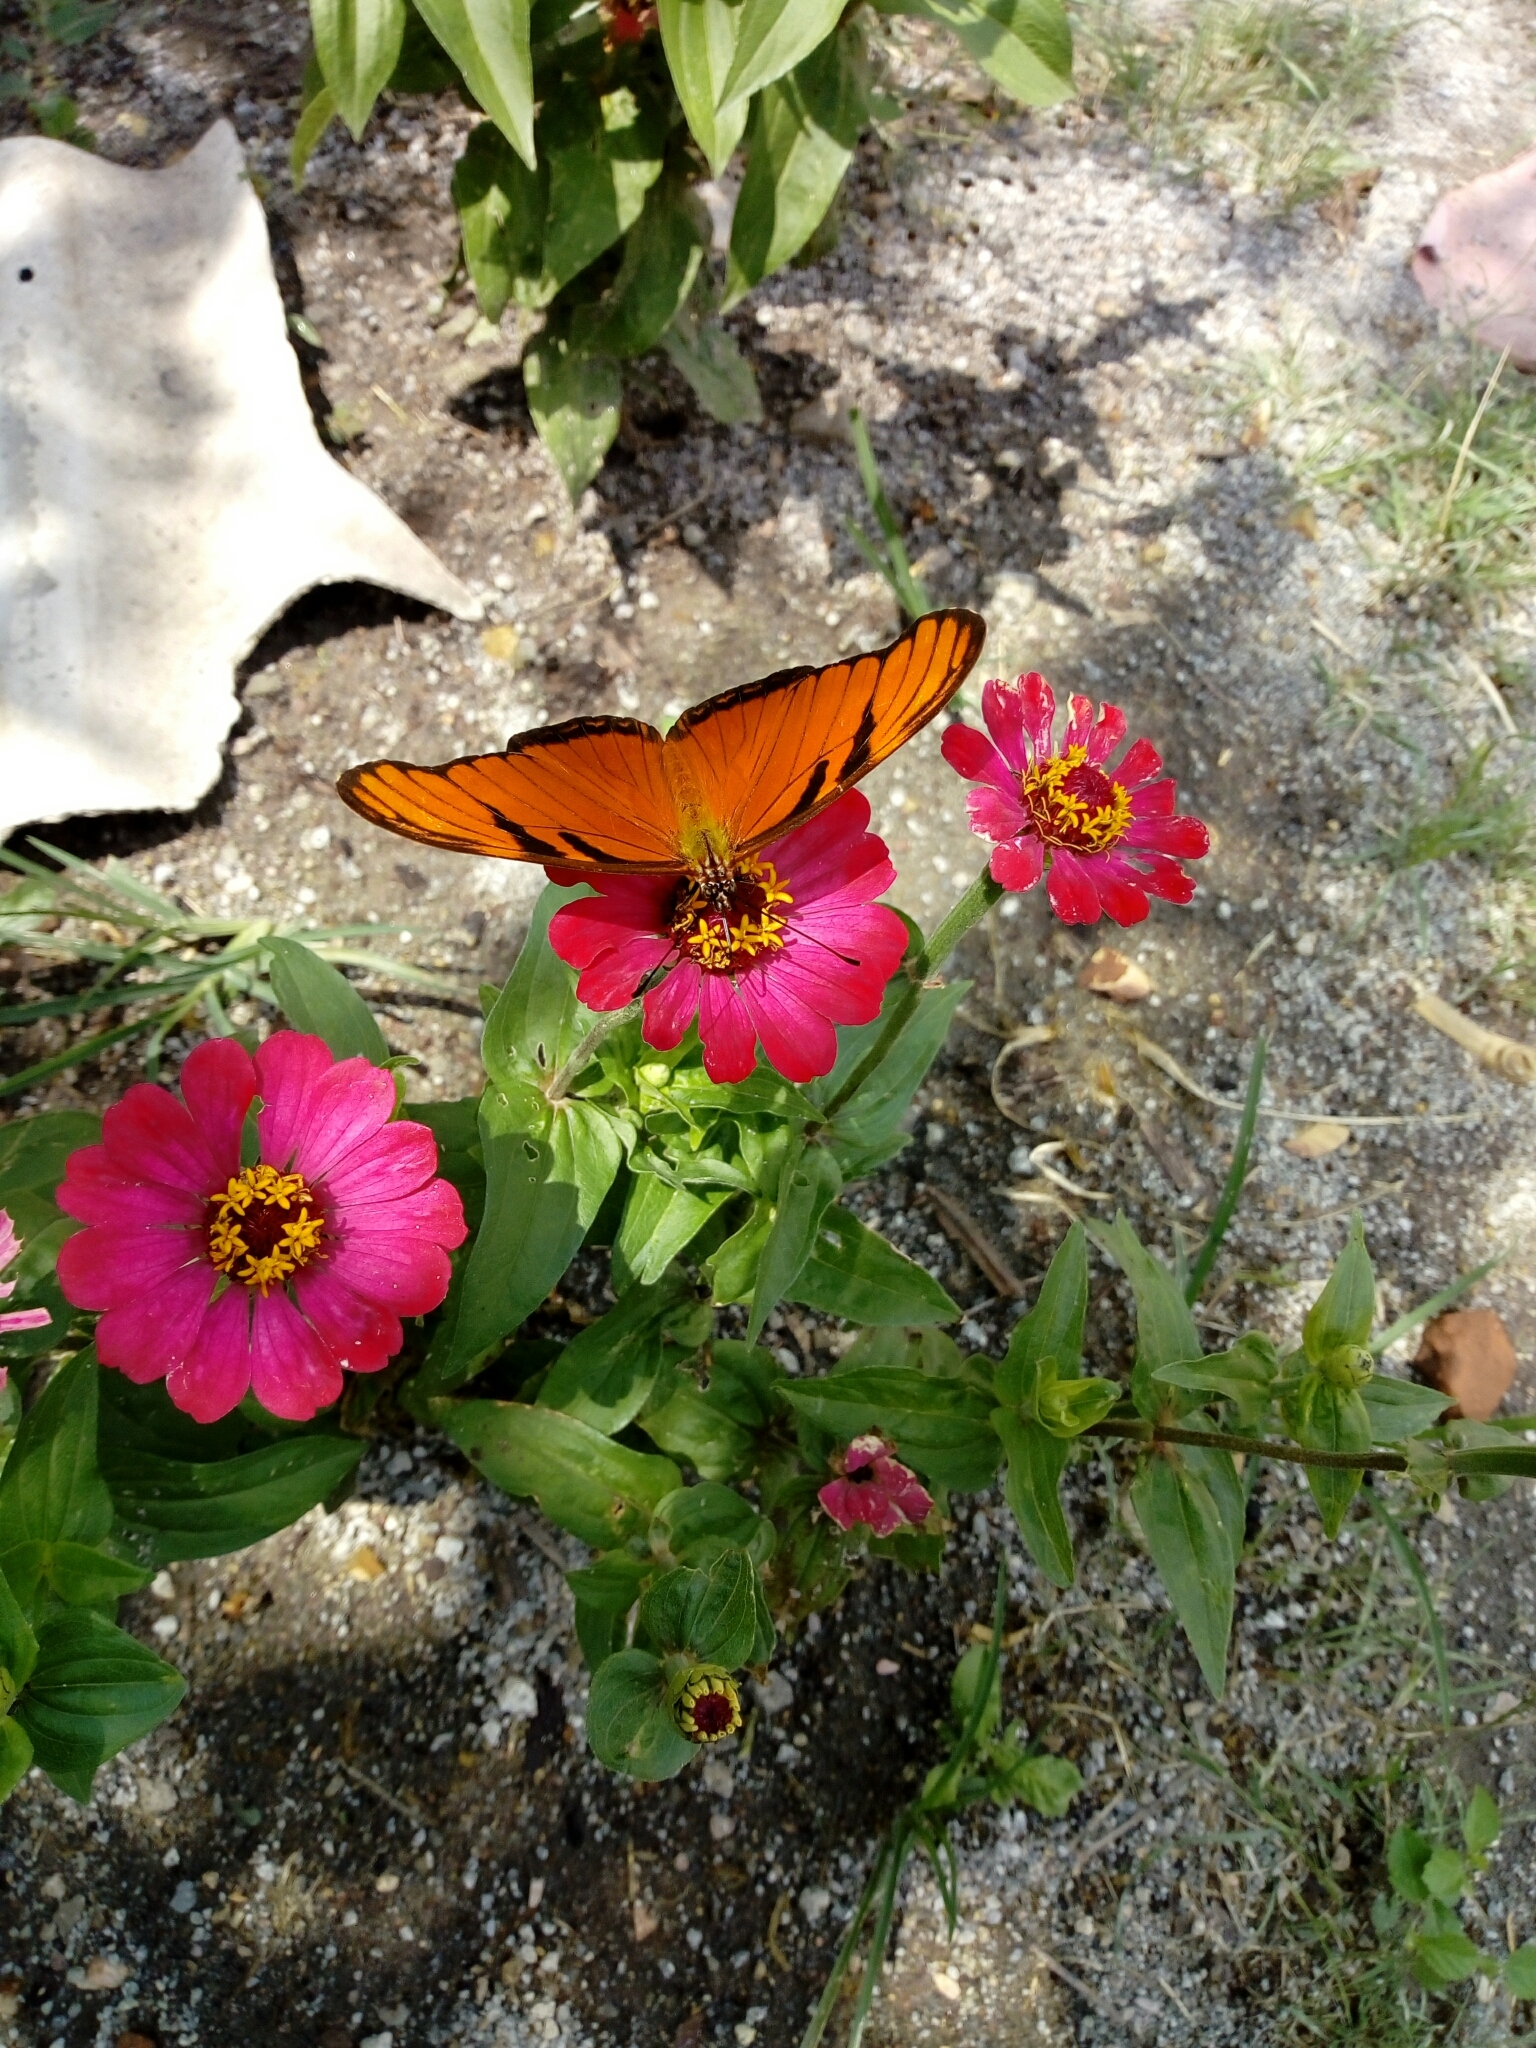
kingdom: Animalia
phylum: Arthropoda
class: Insecta
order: Lepidoptera
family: Nymphalidae
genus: Dione
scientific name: Dione juno
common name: Juno silverspot
